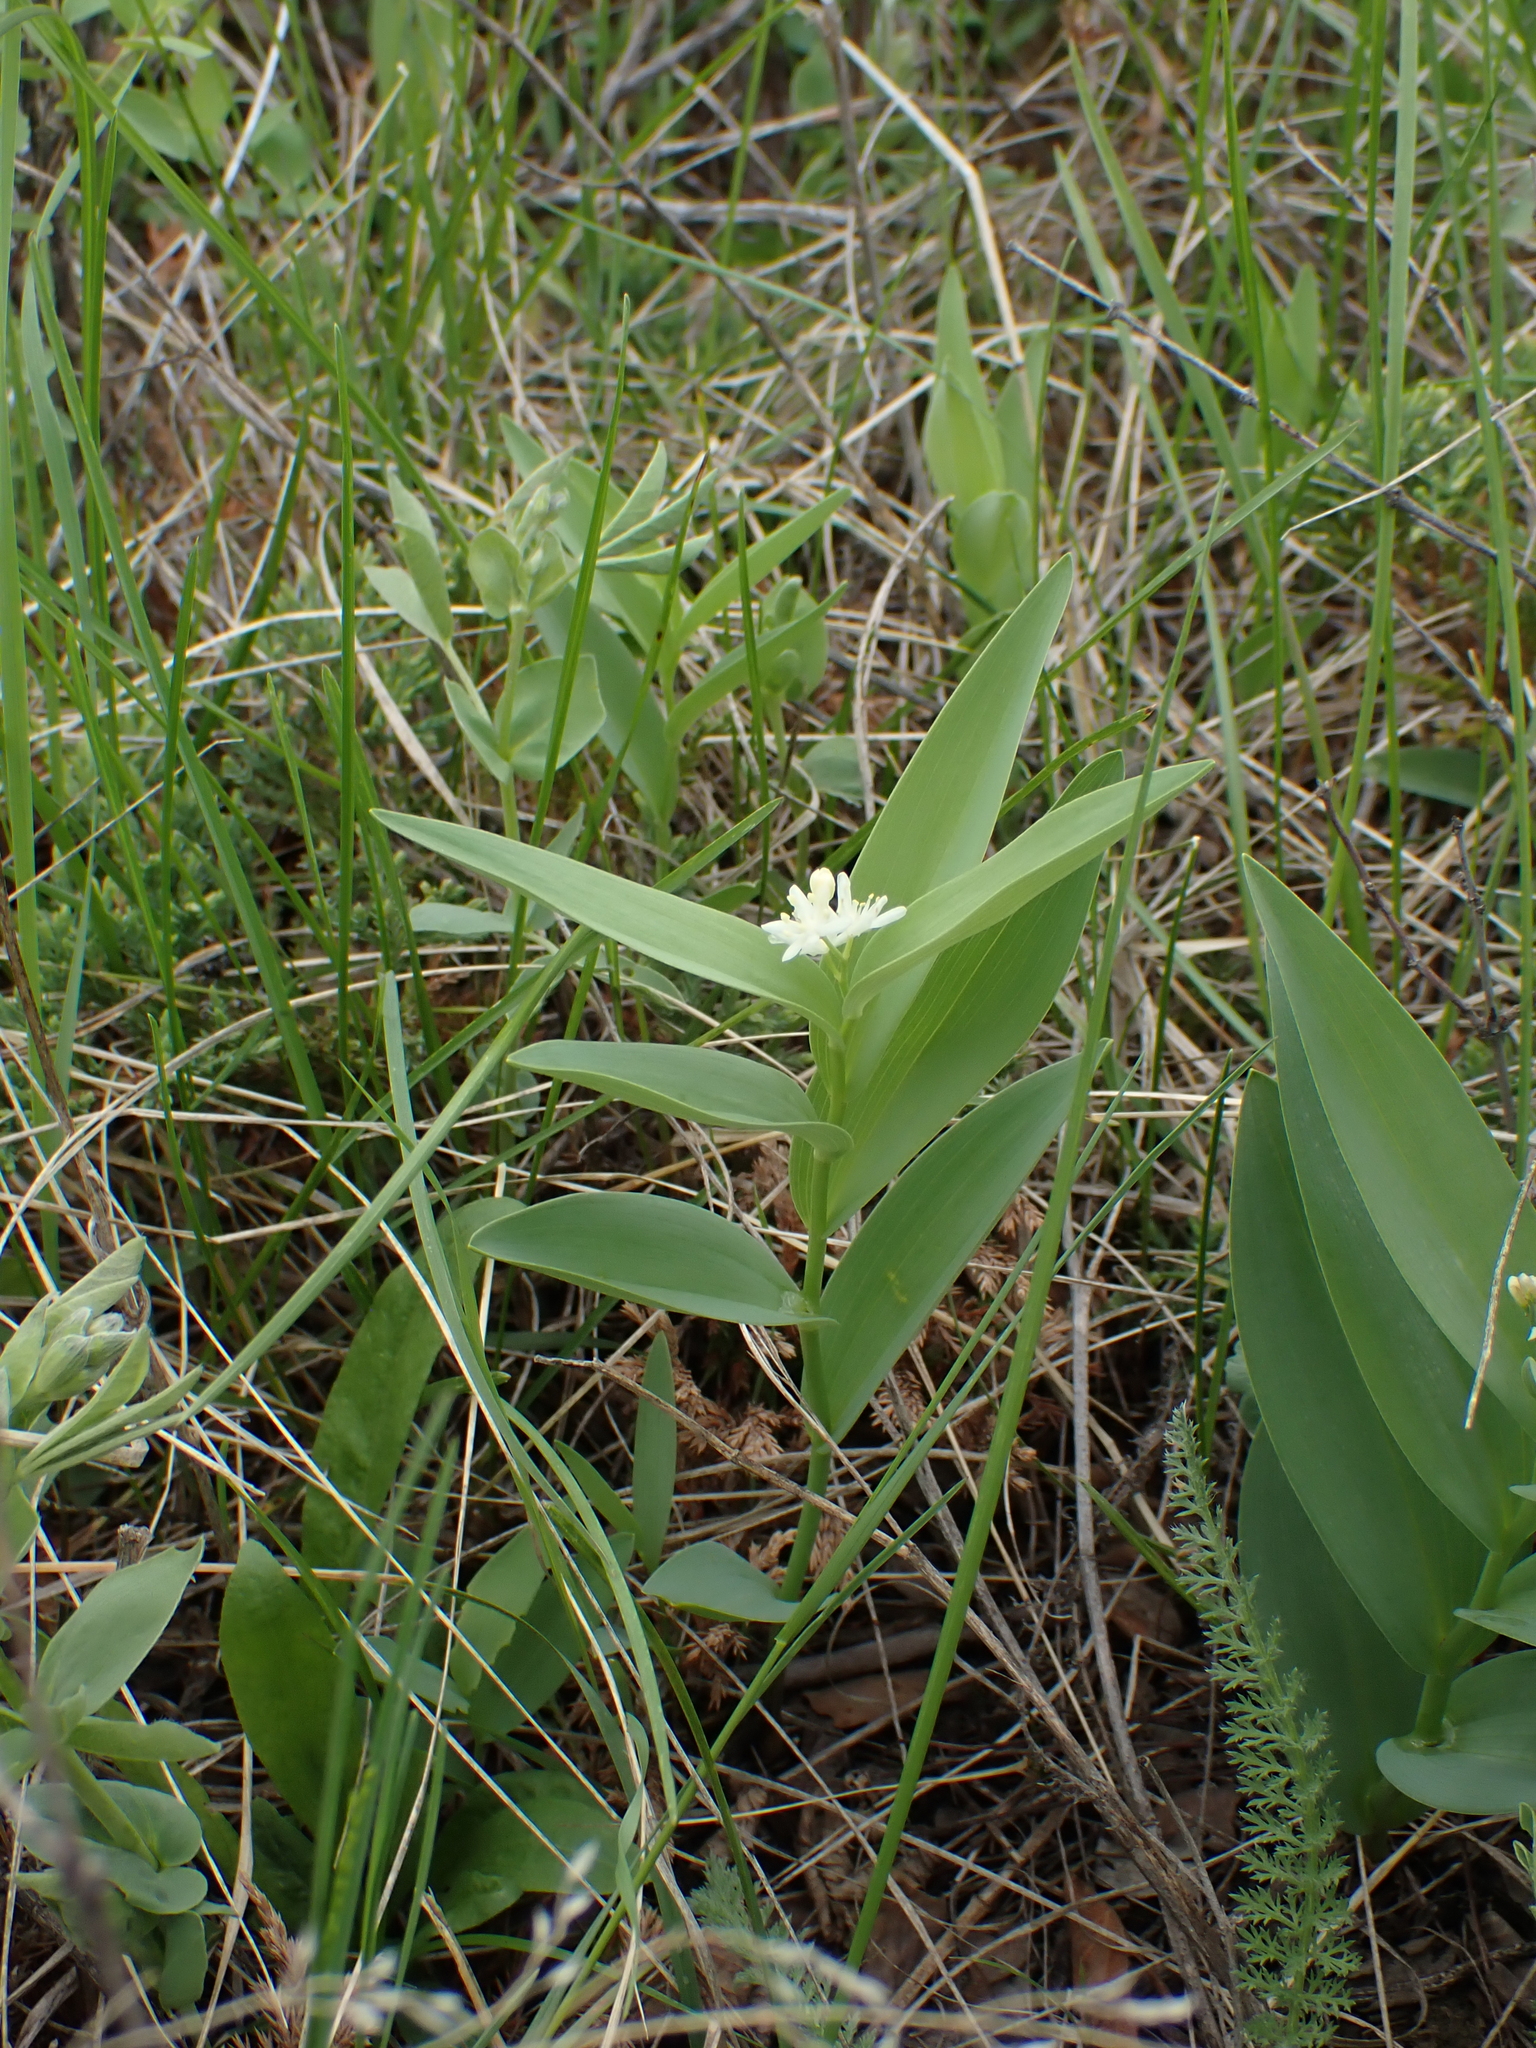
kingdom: Plantae
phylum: Tracheophyta
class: Liliopsida
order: Asparagales
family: Asparagaceae
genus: Maianthemum
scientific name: Maianthemum stellatum
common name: Little false solomon's seal
